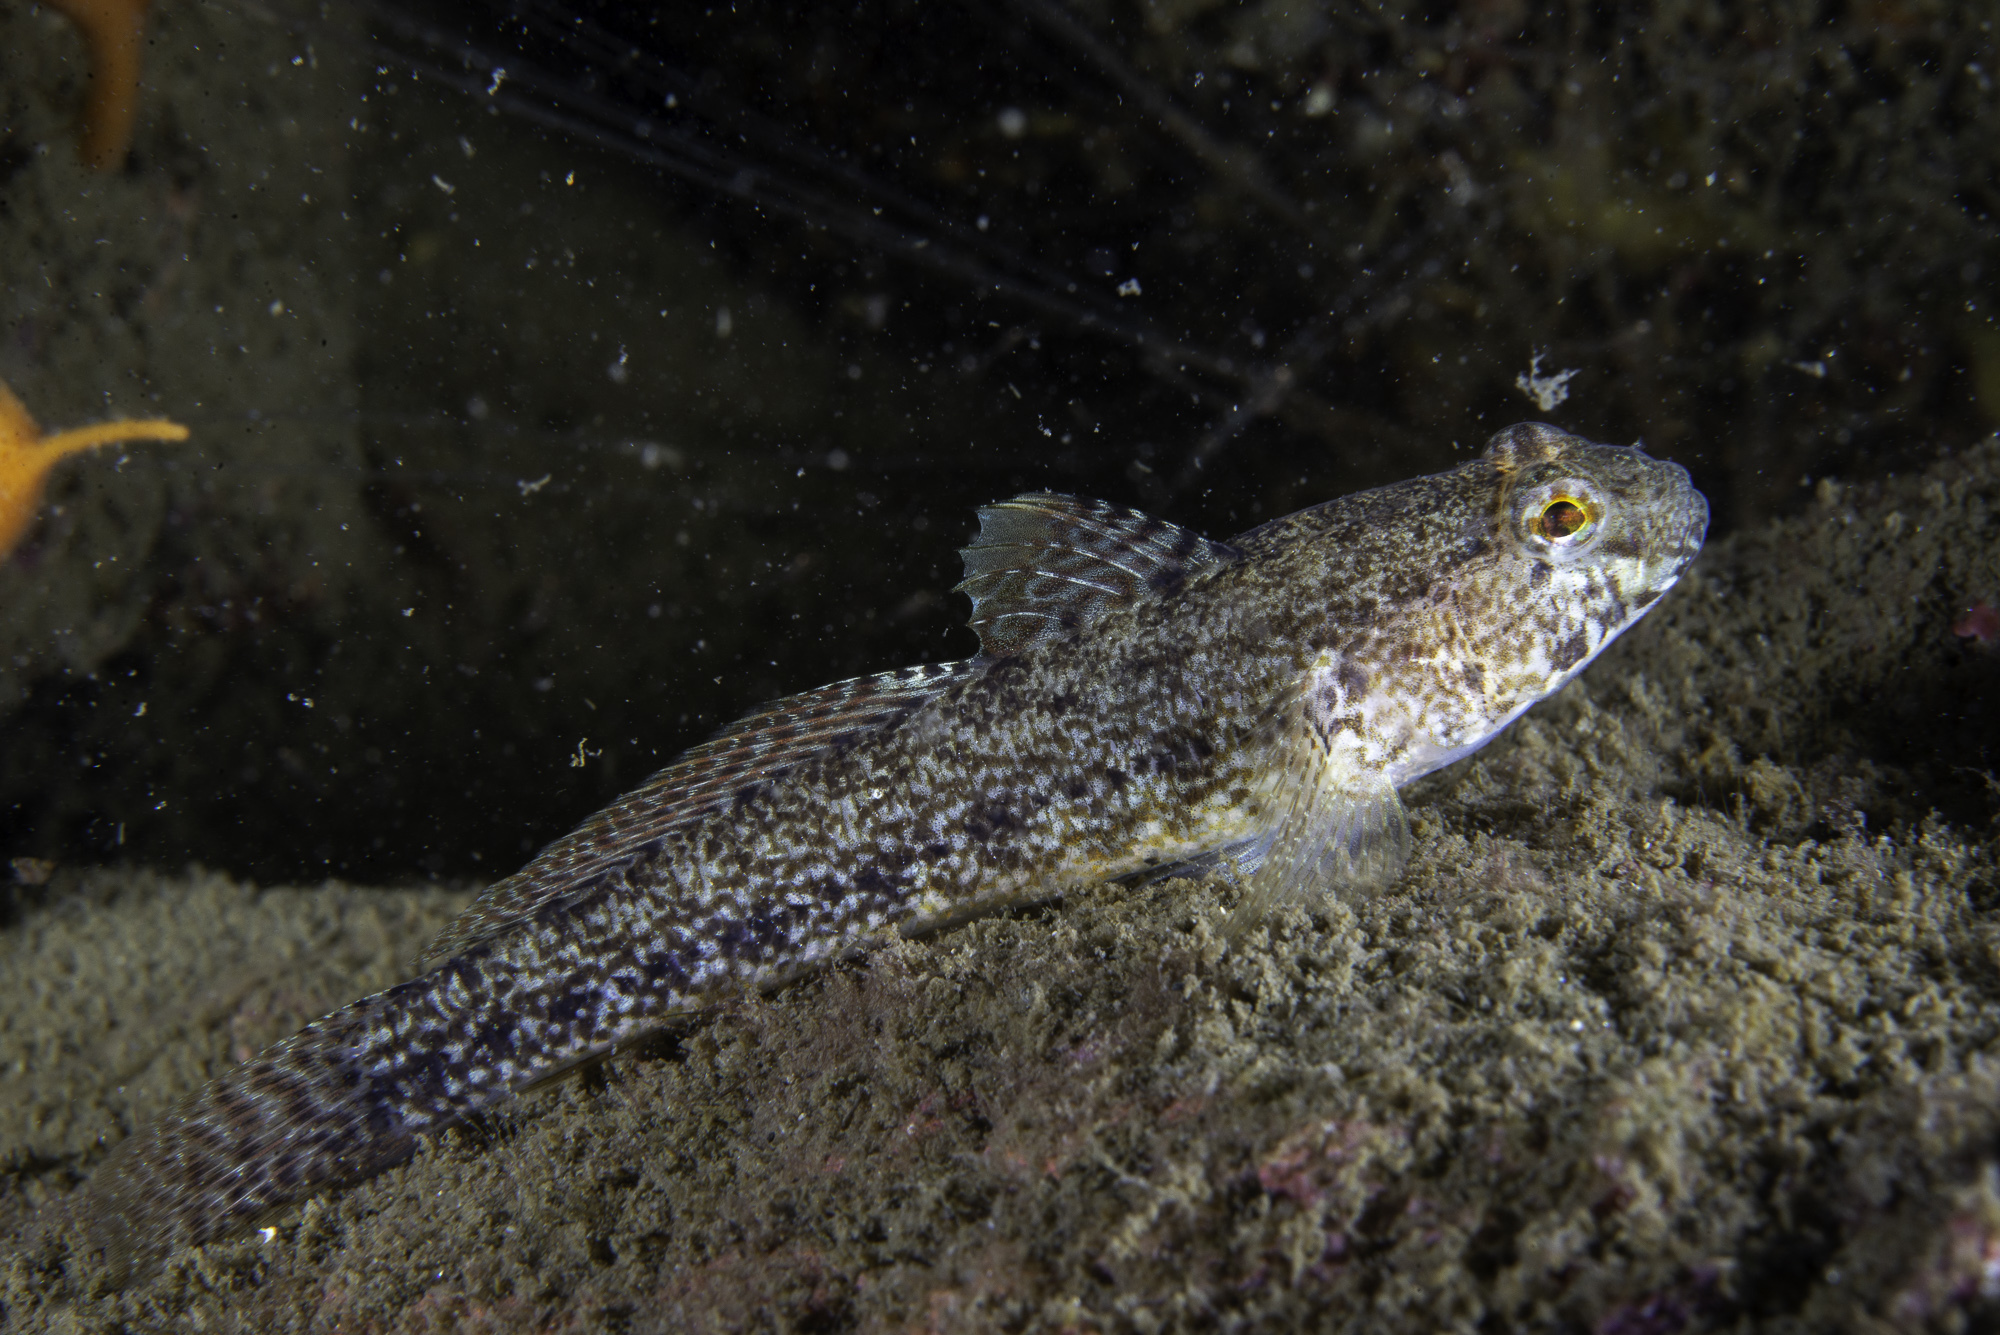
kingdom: Animalia
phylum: Chordata
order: Perciformes
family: Gobiidae
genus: Gobius
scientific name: Gobius couchi
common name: Couch's goby
